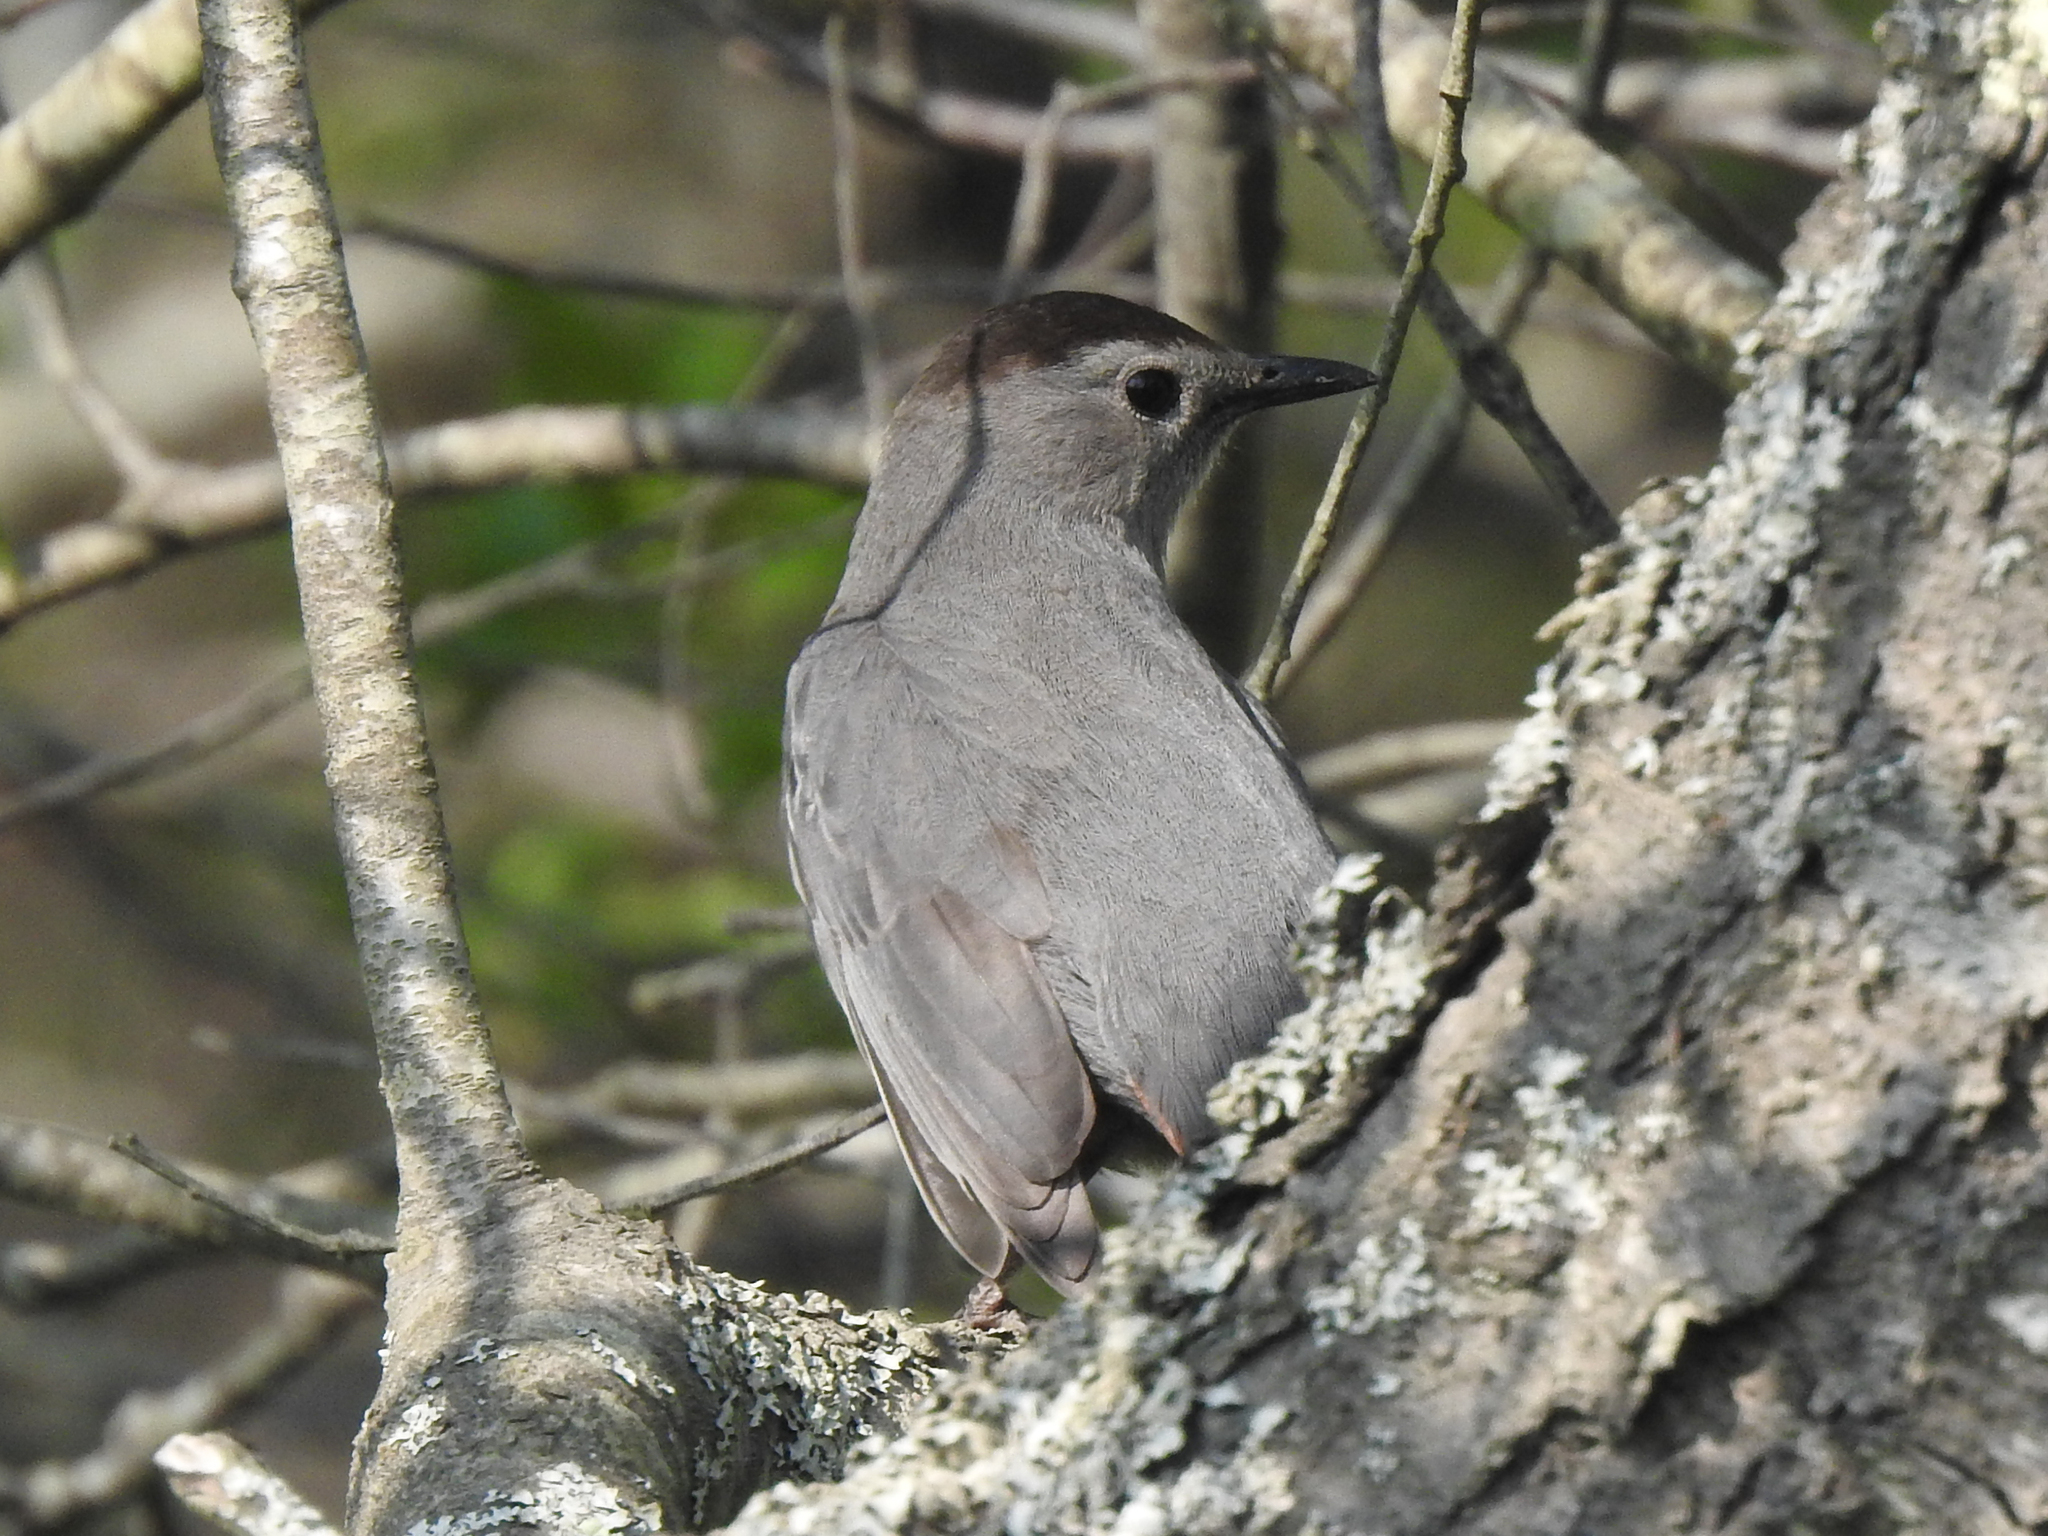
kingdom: Animalia
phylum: Chordata
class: Aves
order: Passeriformes
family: Mimidae
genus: Dumetella
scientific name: Dumetella carolinensis
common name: Gray catbird
